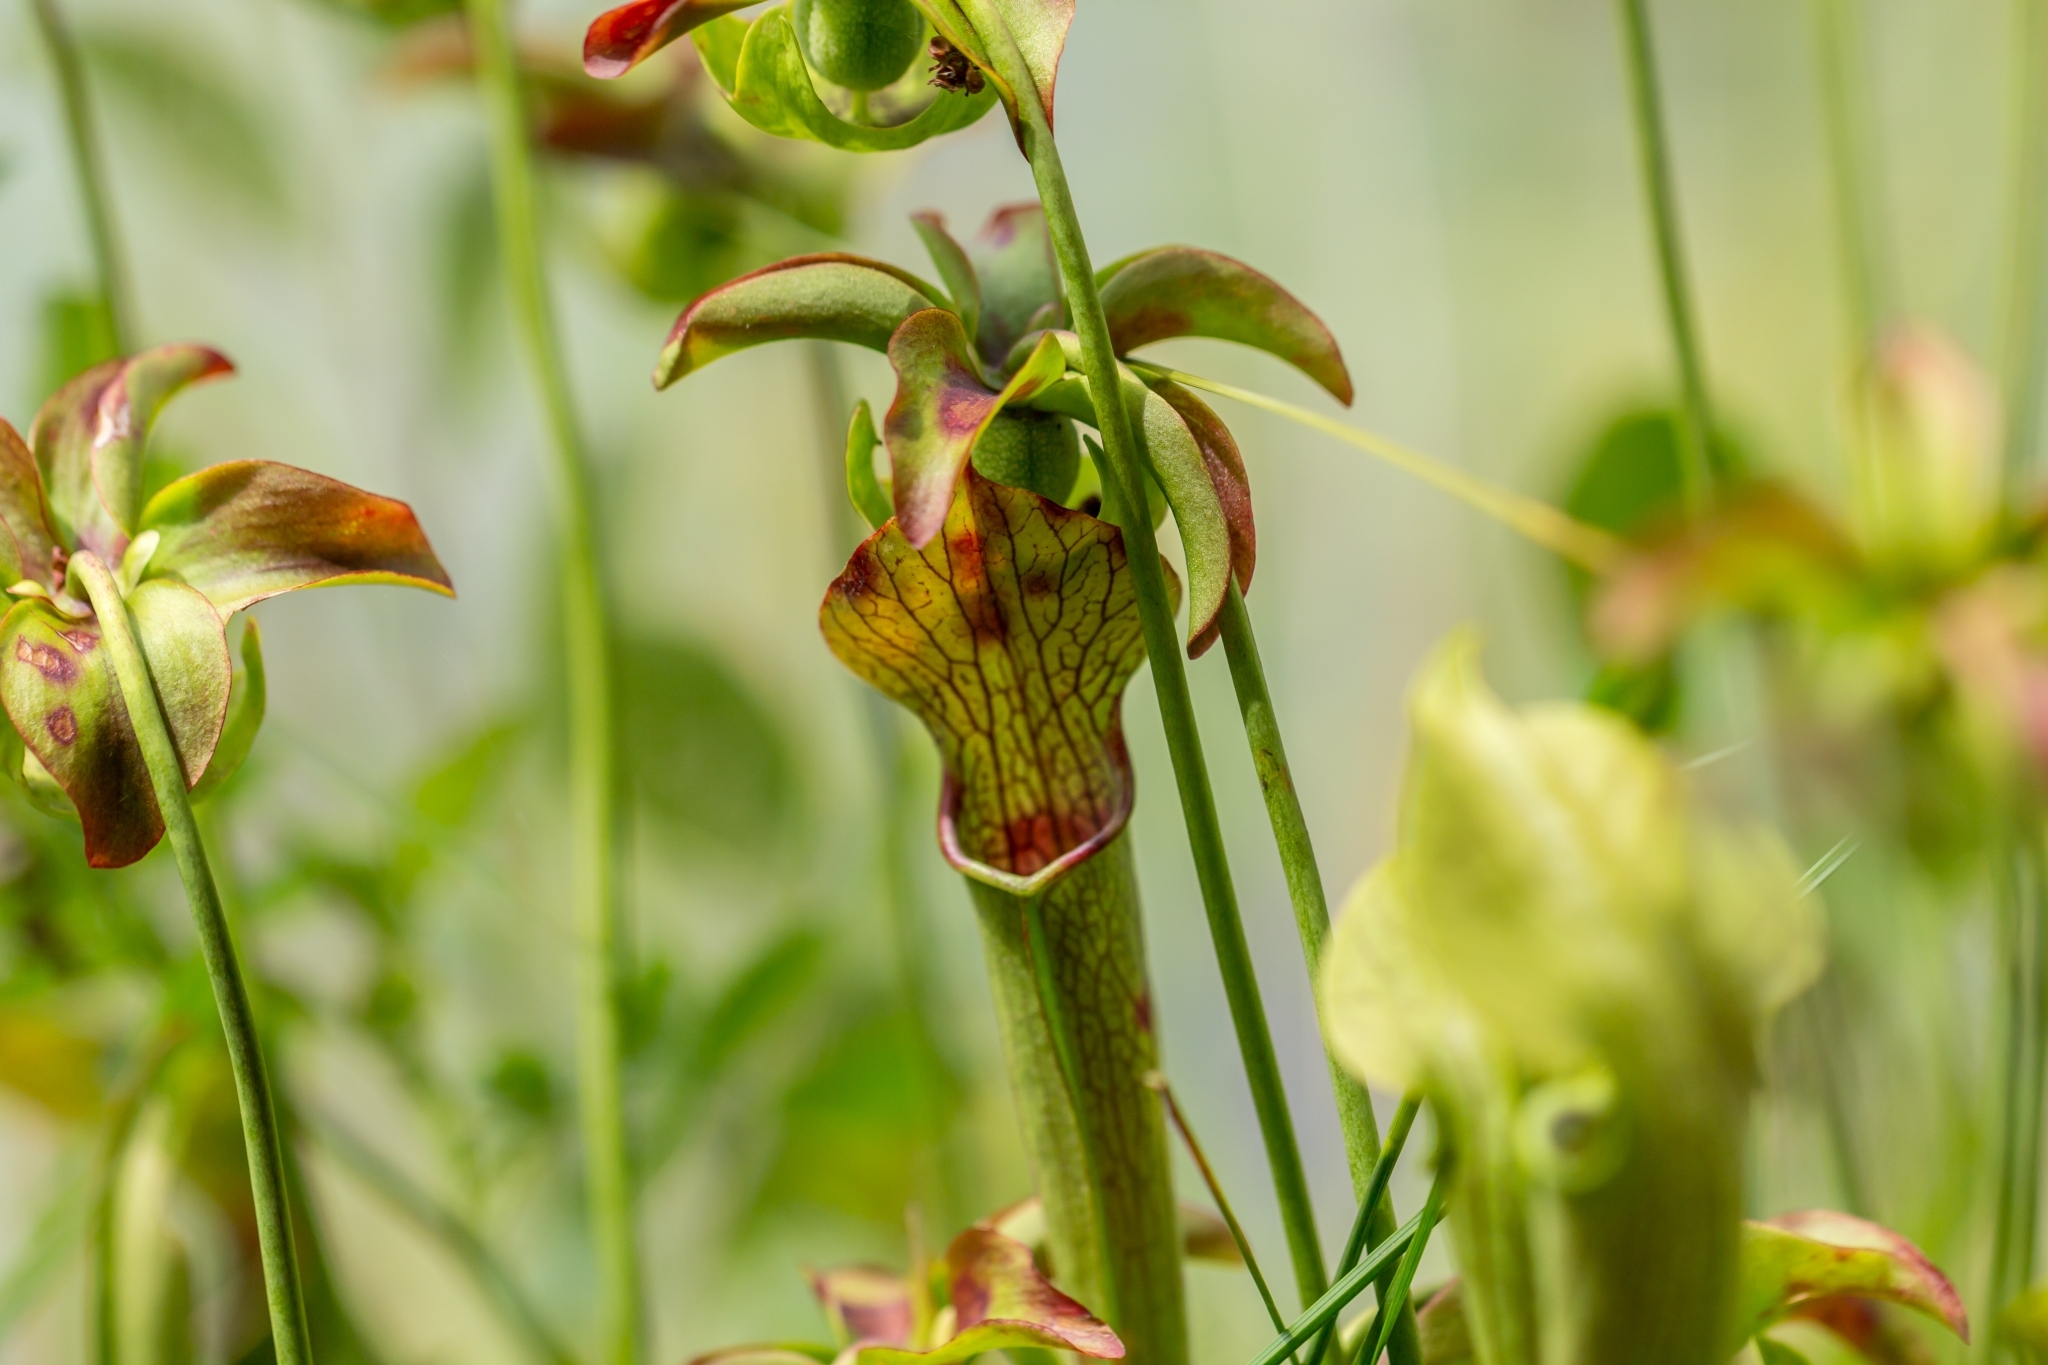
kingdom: Plantae
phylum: Tracheophyta
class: Magnoliopsida
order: Ericales
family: Sarraceniaceae
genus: Sarracenia
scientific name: Sarracenia jonesii
